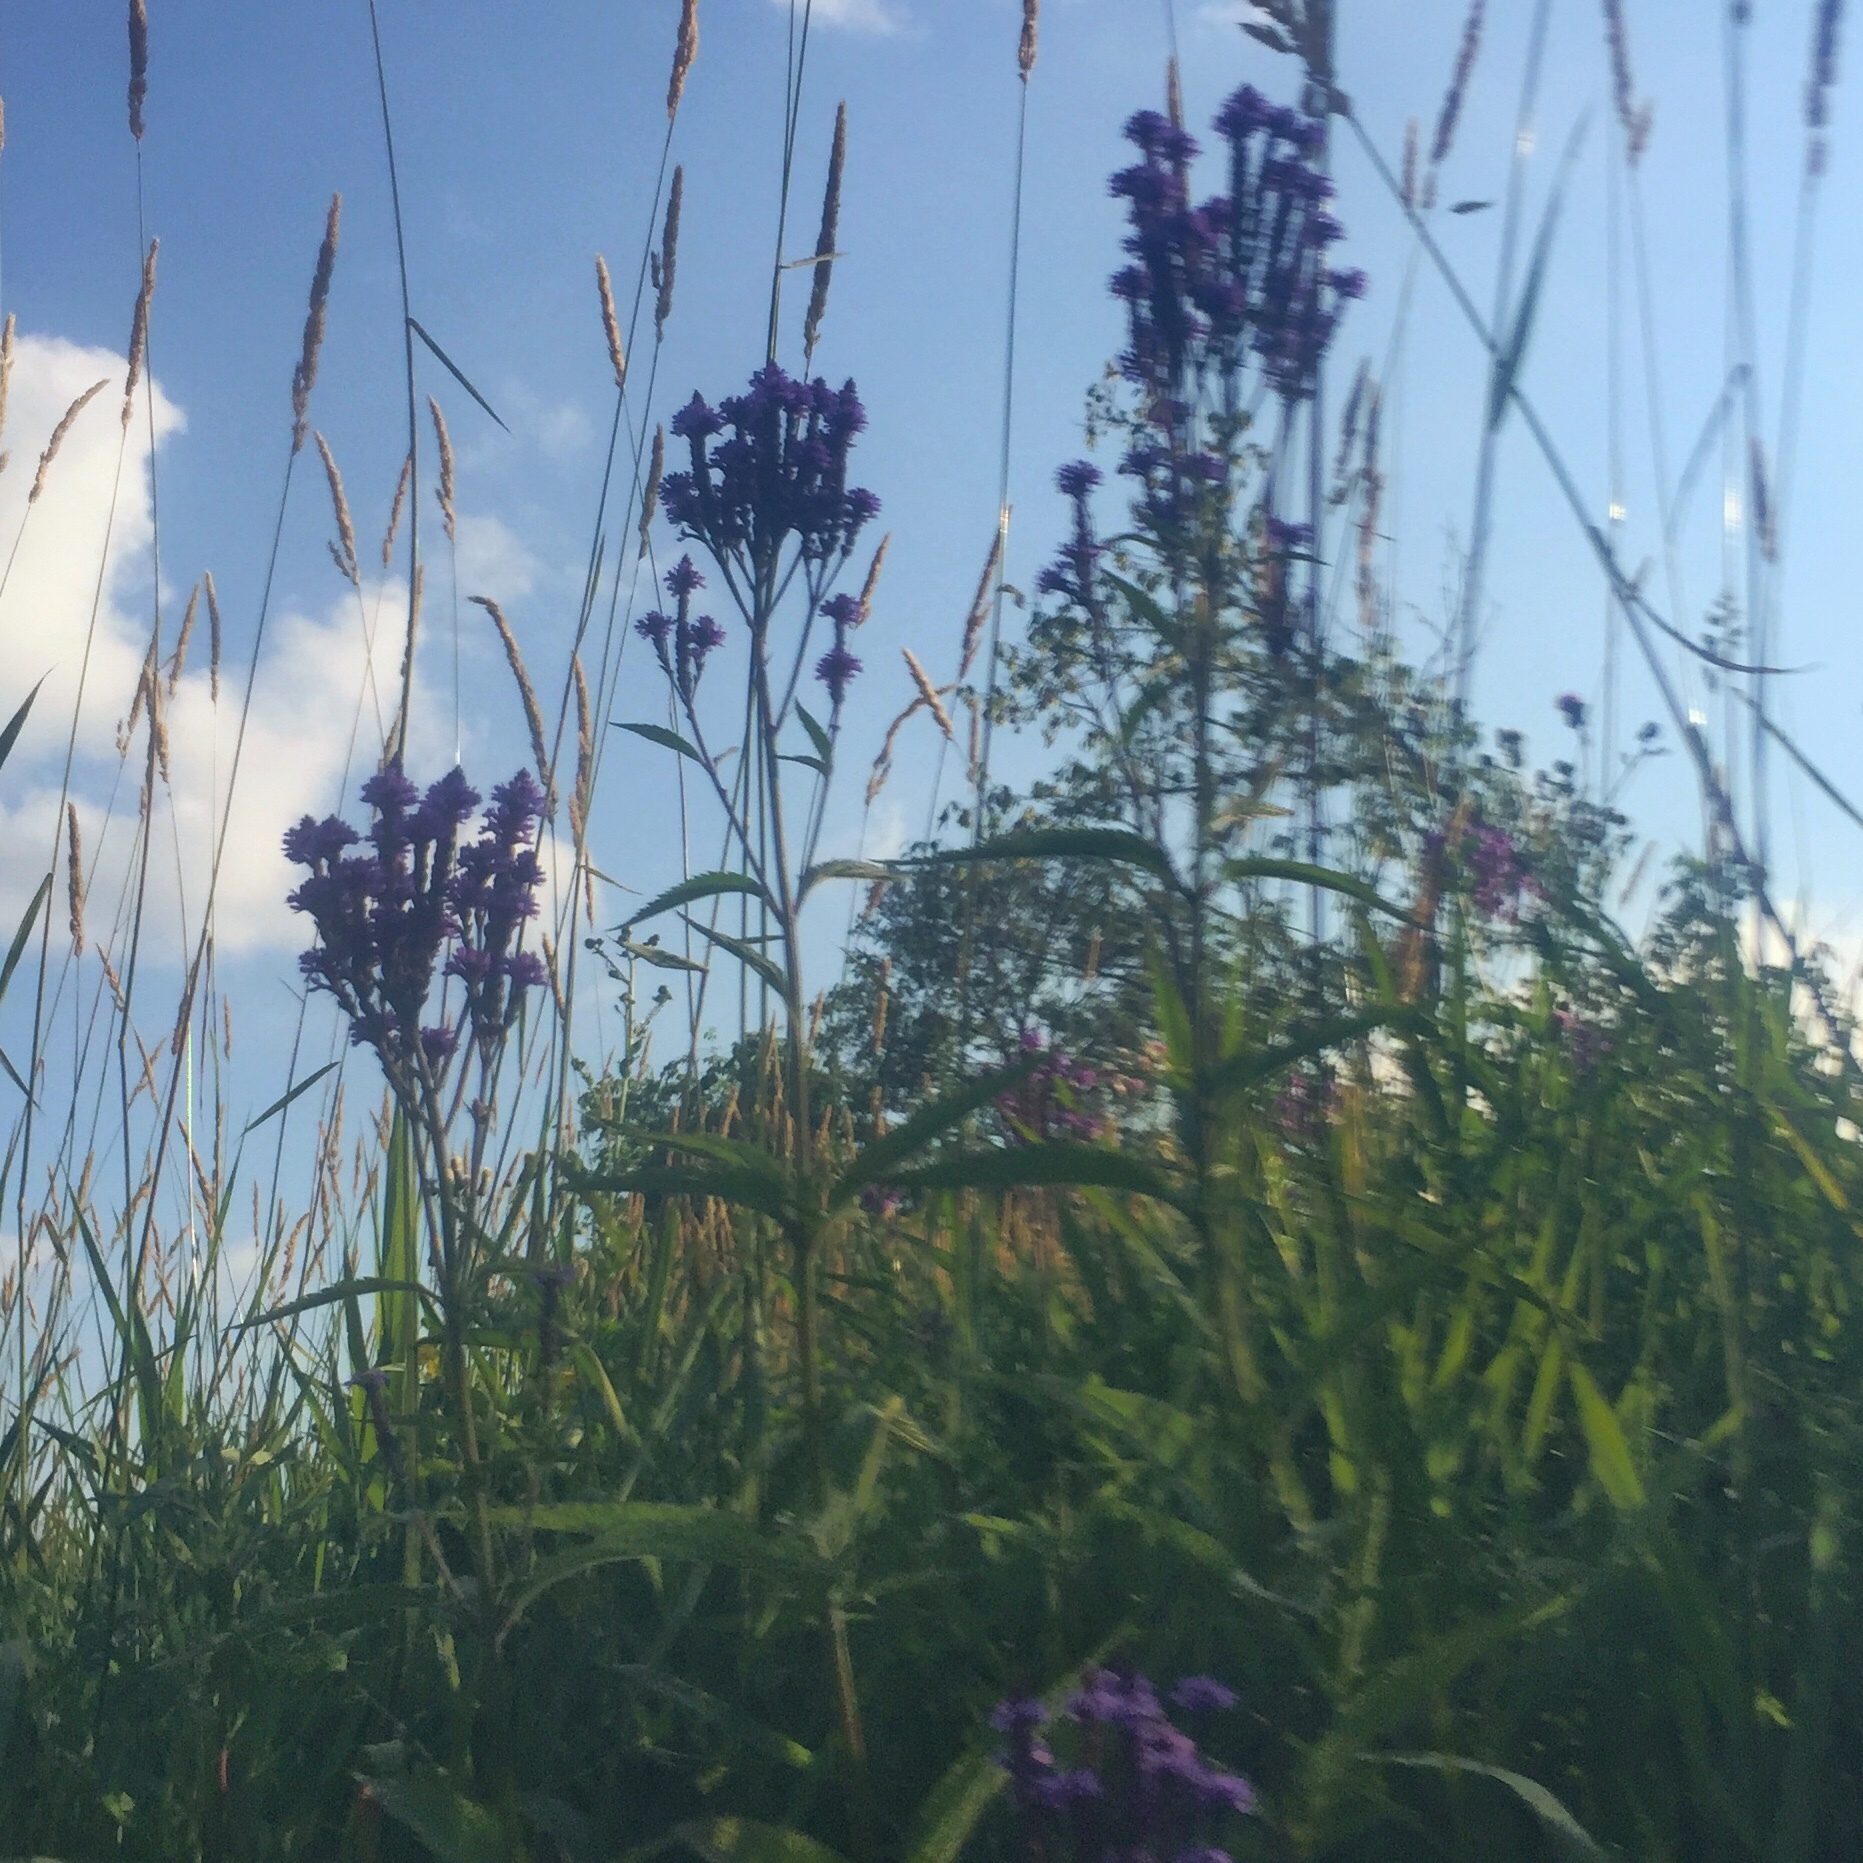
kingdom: Plantae
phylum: Tracheophyta
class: Magnoliopsida
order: Lamiales
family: Verbenaceae
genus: Verbena
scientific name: Verbena hastata
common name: American blue vervain
